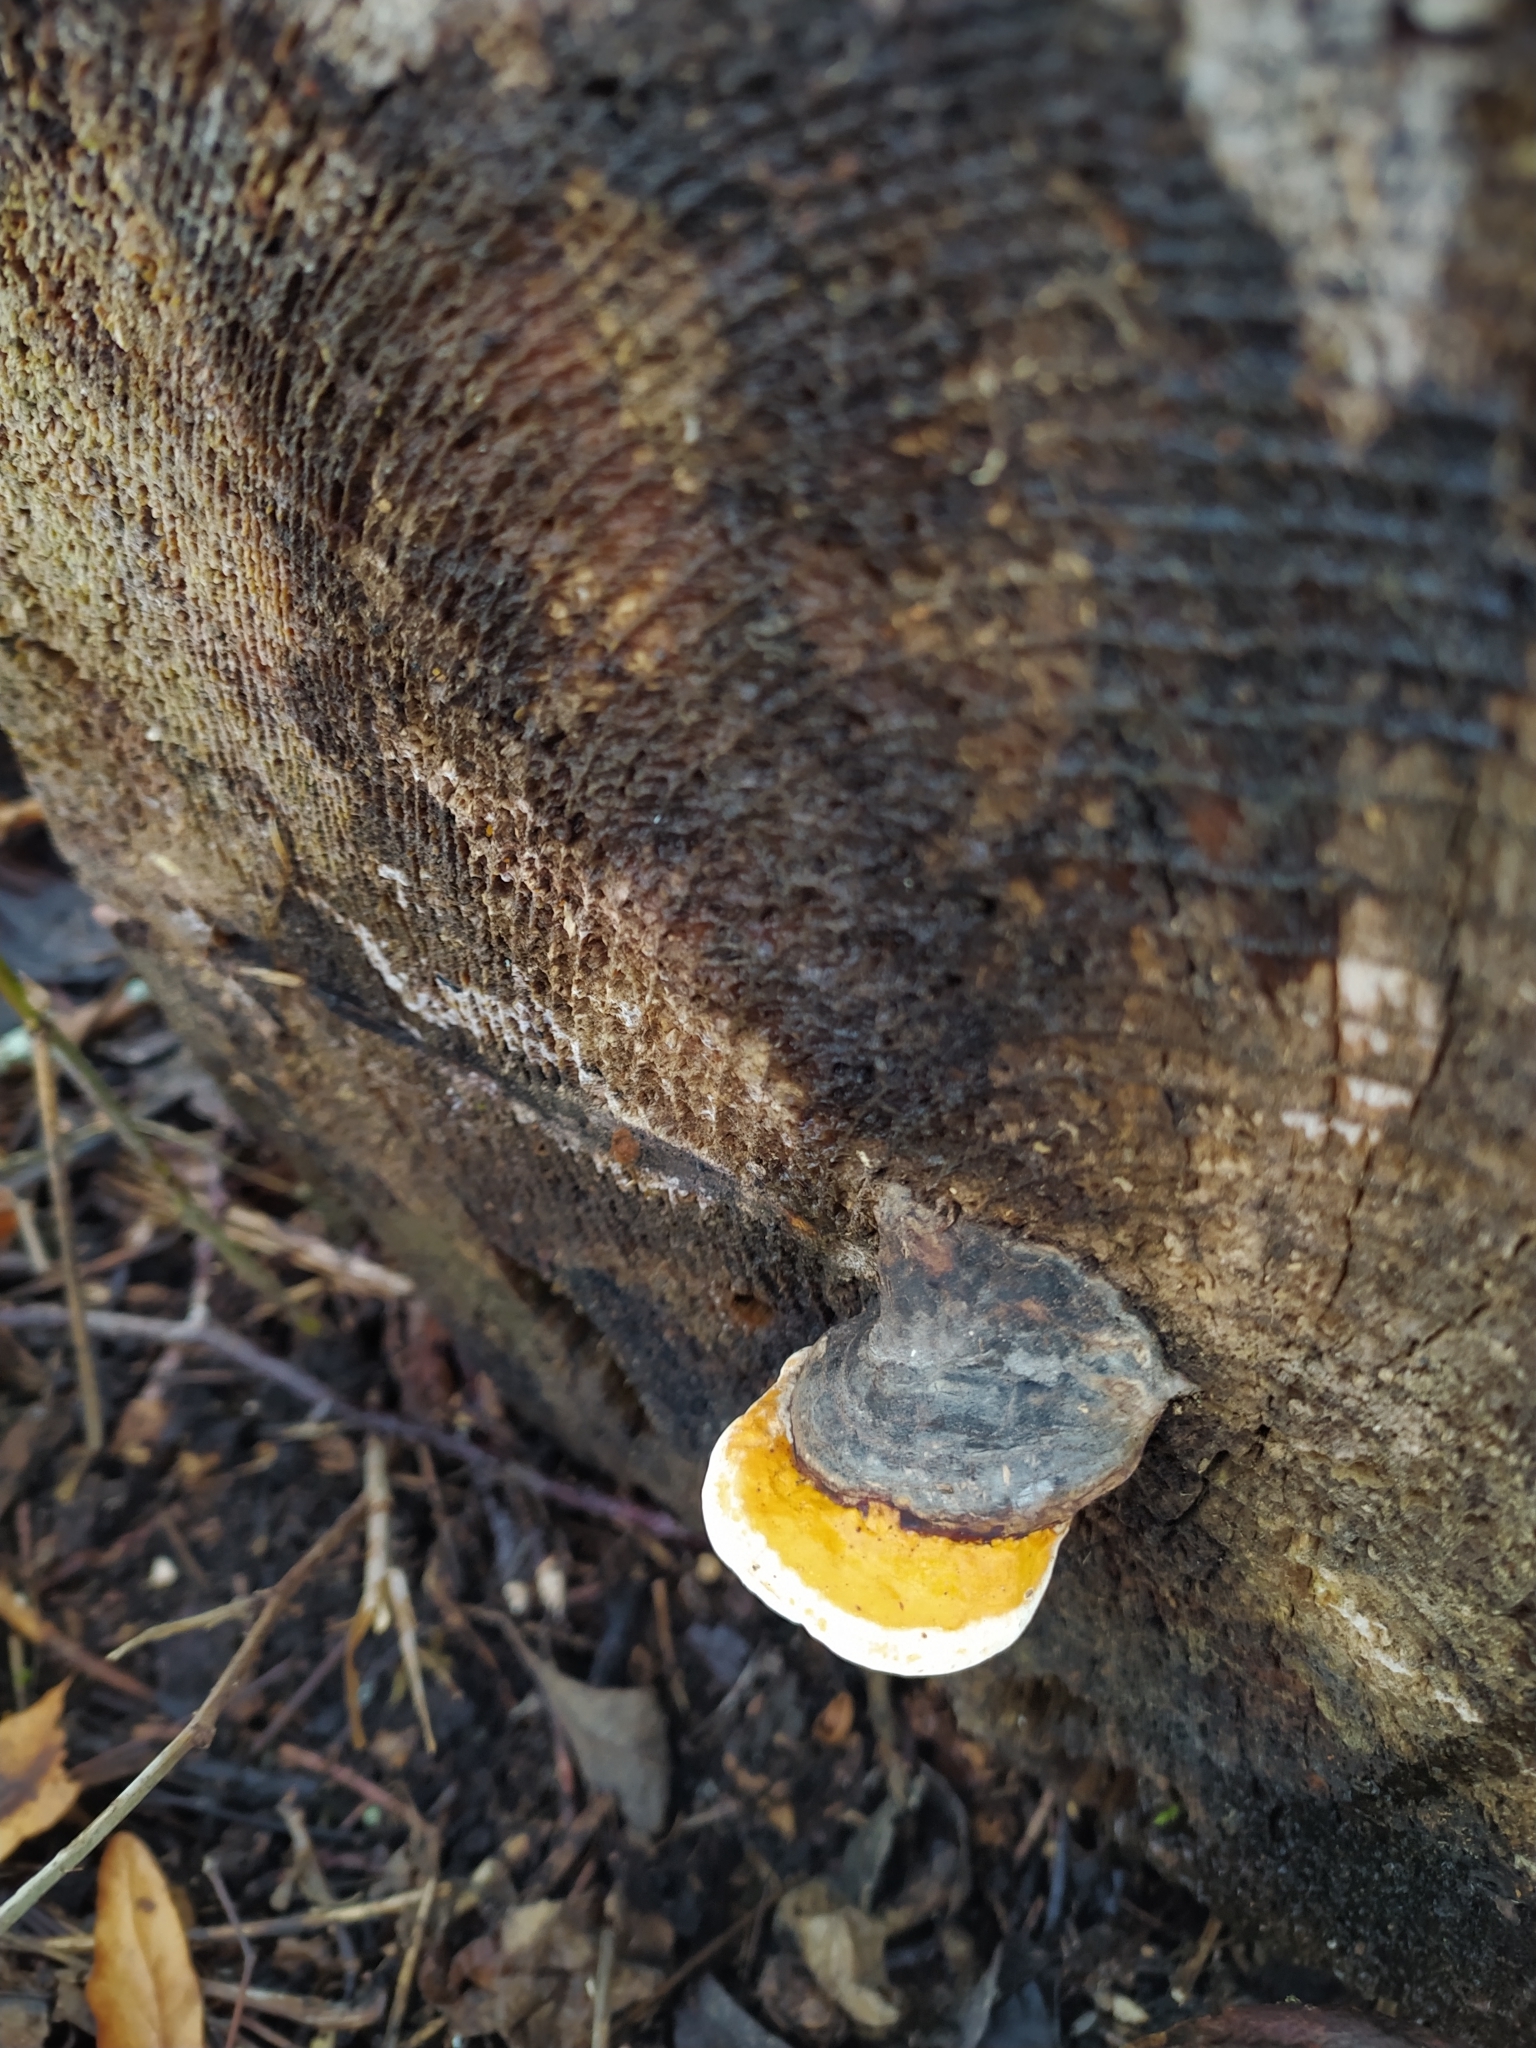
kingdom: Fungi
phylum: Basidiomycota
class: Agaricomycetes
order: Polyporales
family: Fomitopsidaceae
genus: Fomitopsis
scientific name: Fomitopsis pinicola
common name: Red-belted bracket
